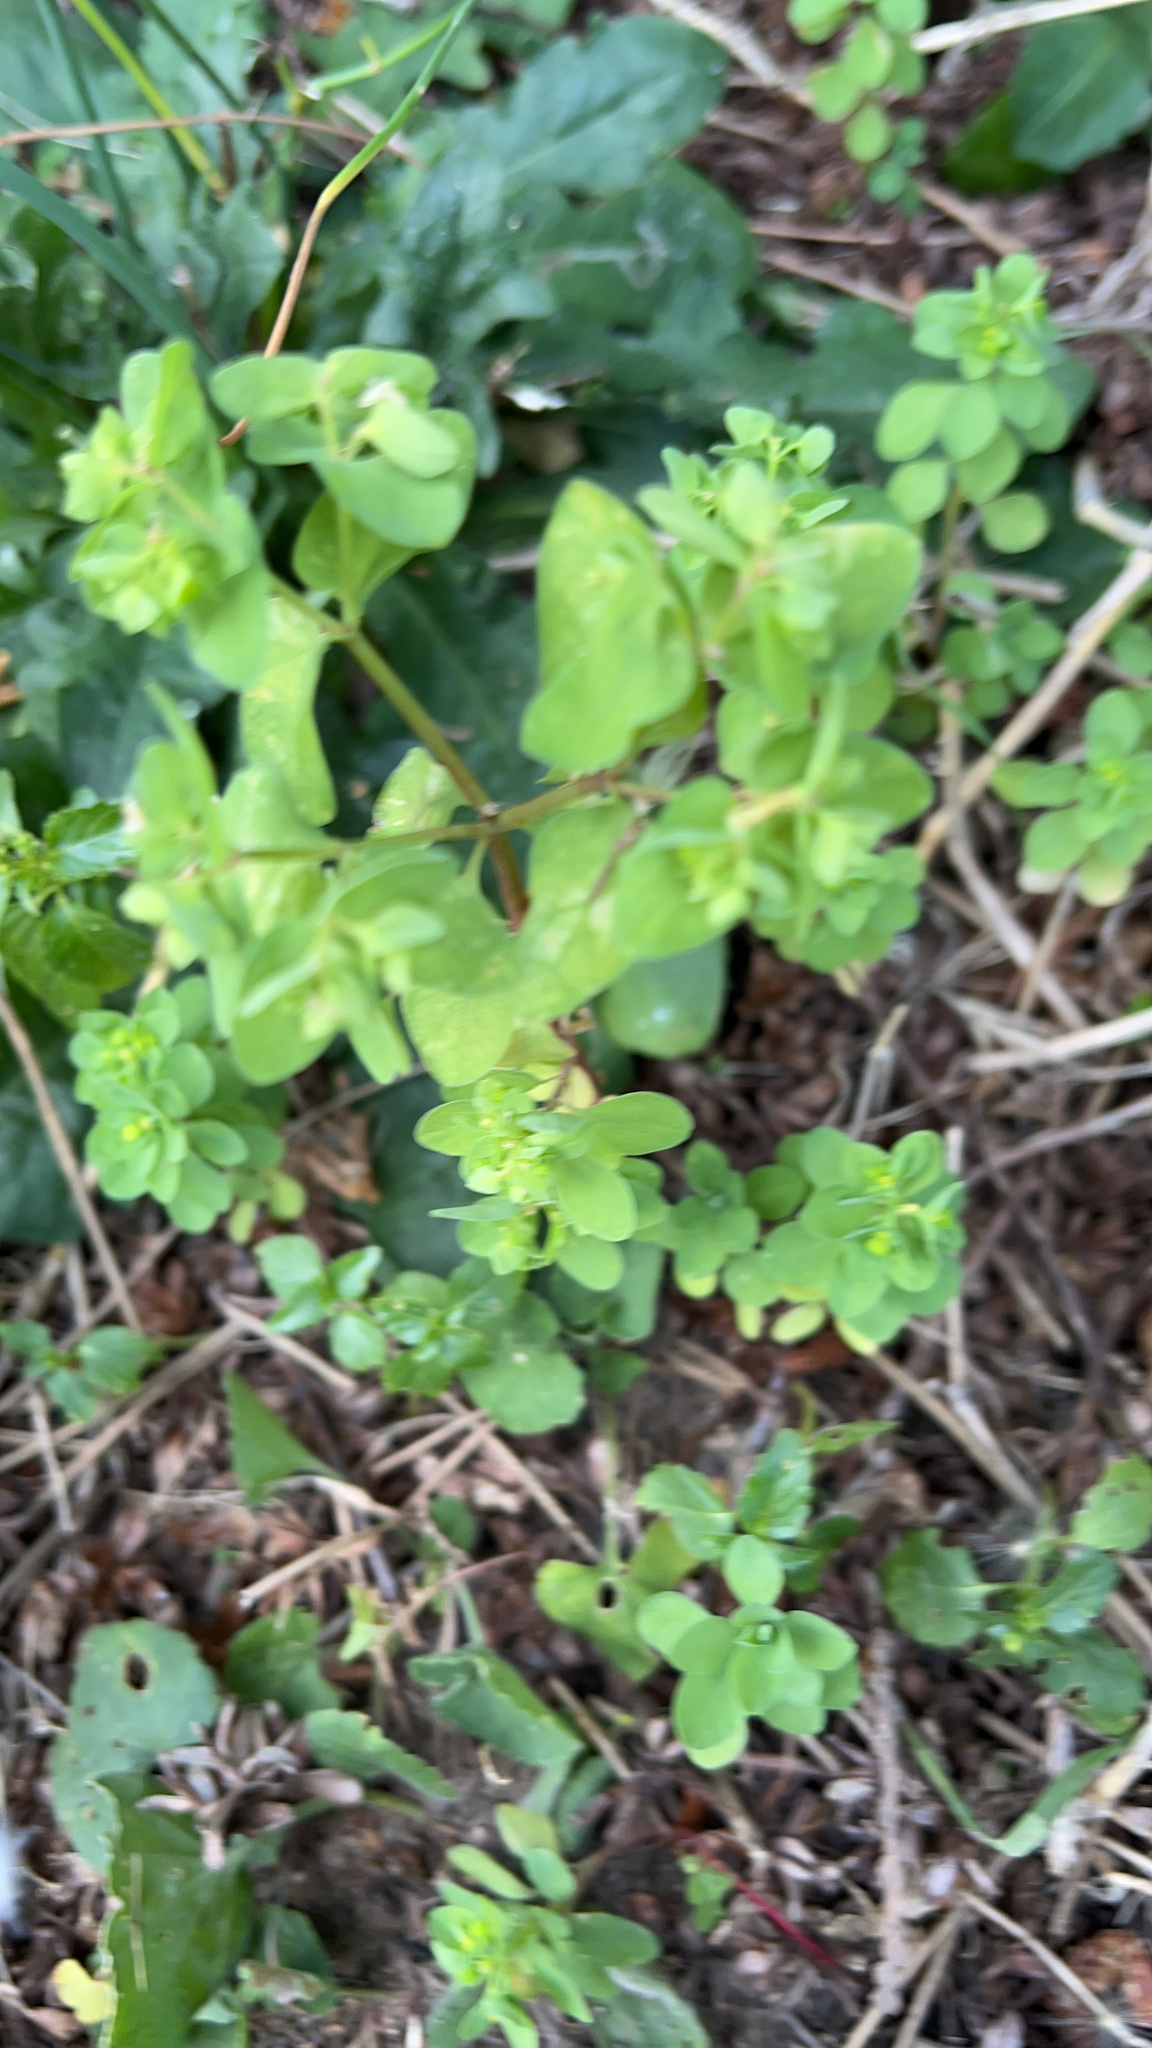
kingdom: Plantae
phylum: Tracheophyta
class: Magnoliopsida
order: Malpighiales
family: Euphorbiaceae
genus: Euphorbia
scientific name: Euphorbia peplus
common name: Petty spurge
